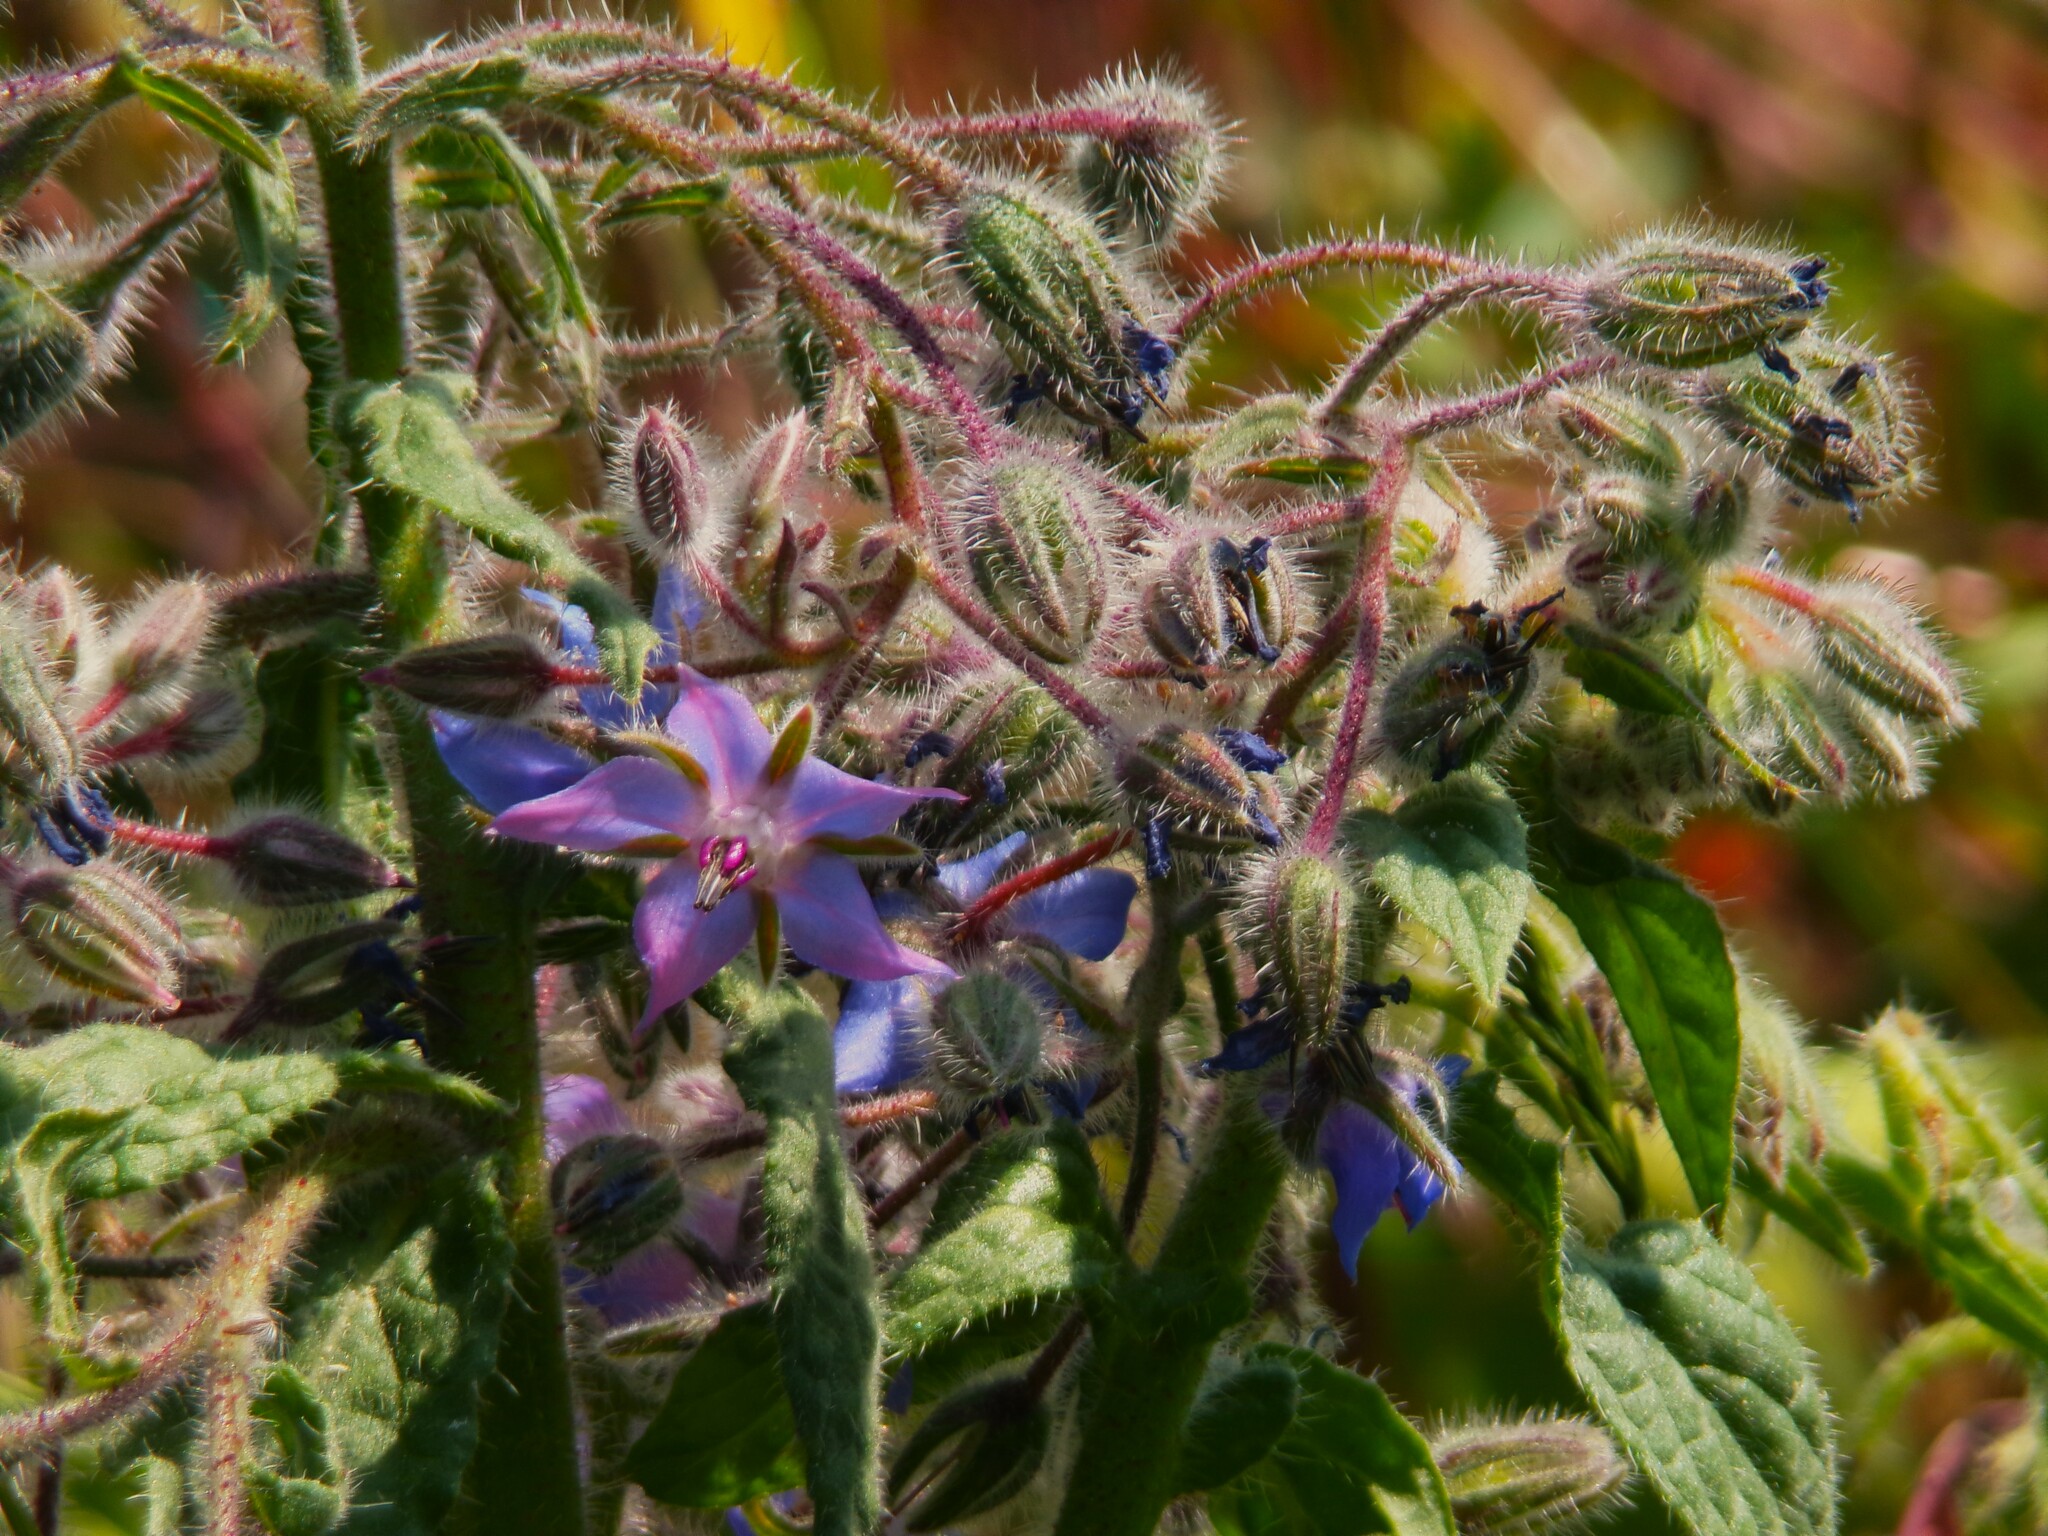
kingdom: Plantae
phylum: Tracheophyta
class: Magnoliopsida
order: Boraginales
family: Boraginaceae
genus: Borago
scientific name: Borago officinalis
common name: Borage
